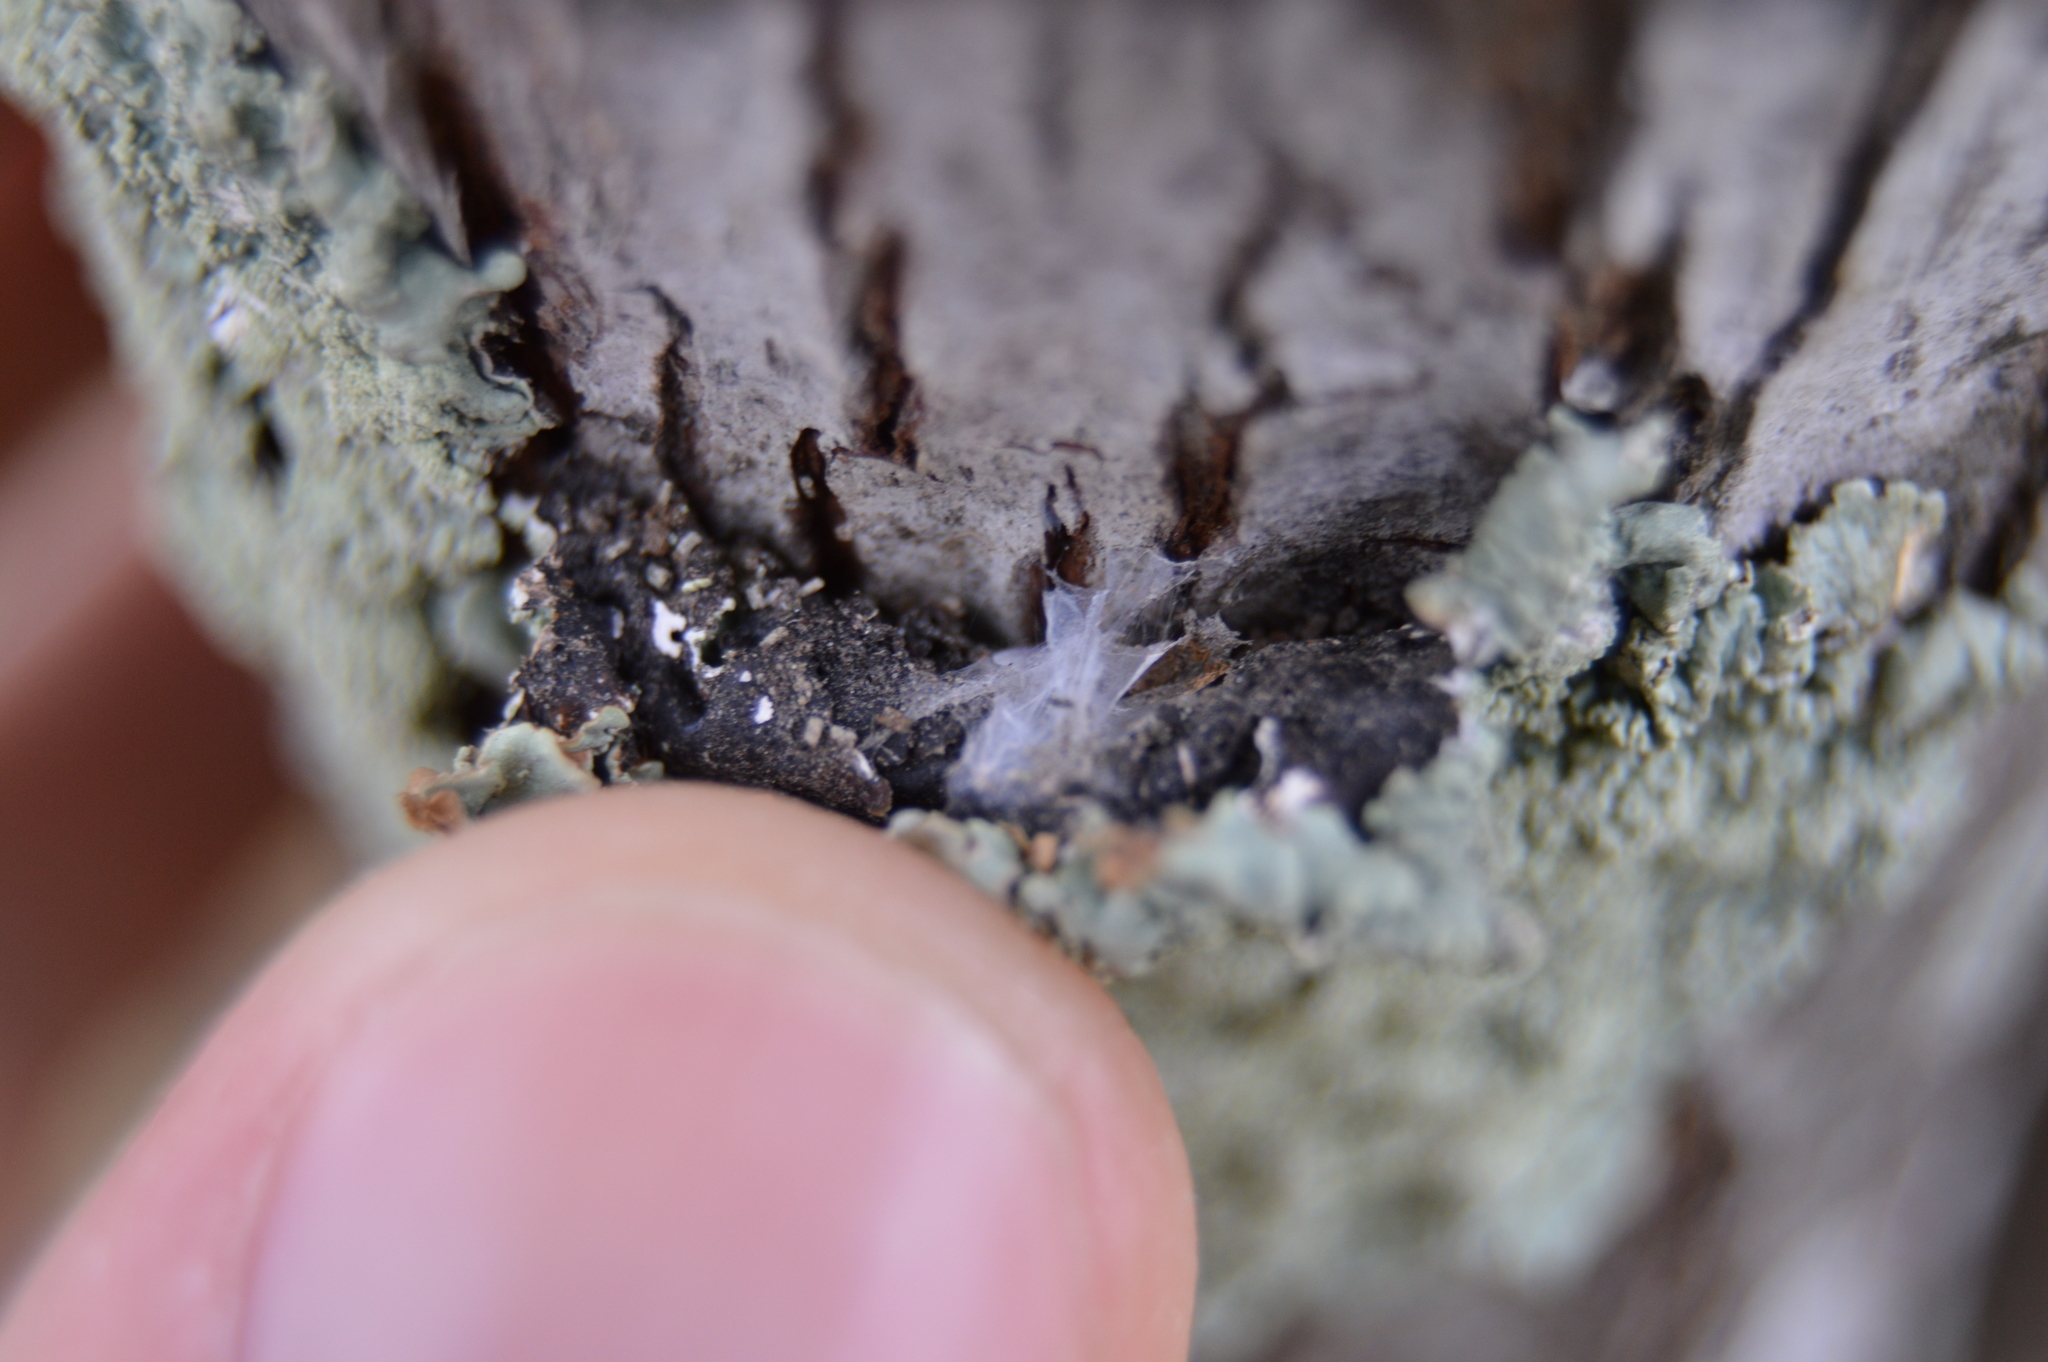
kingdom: Fungi
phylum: Ascomycota
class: Lecanoromycetes
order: Lecanorales
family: Parmeliaceae
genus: Flavoparmelia
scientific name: Flavoparmelia caperata
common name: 40-mile per hour lichen
